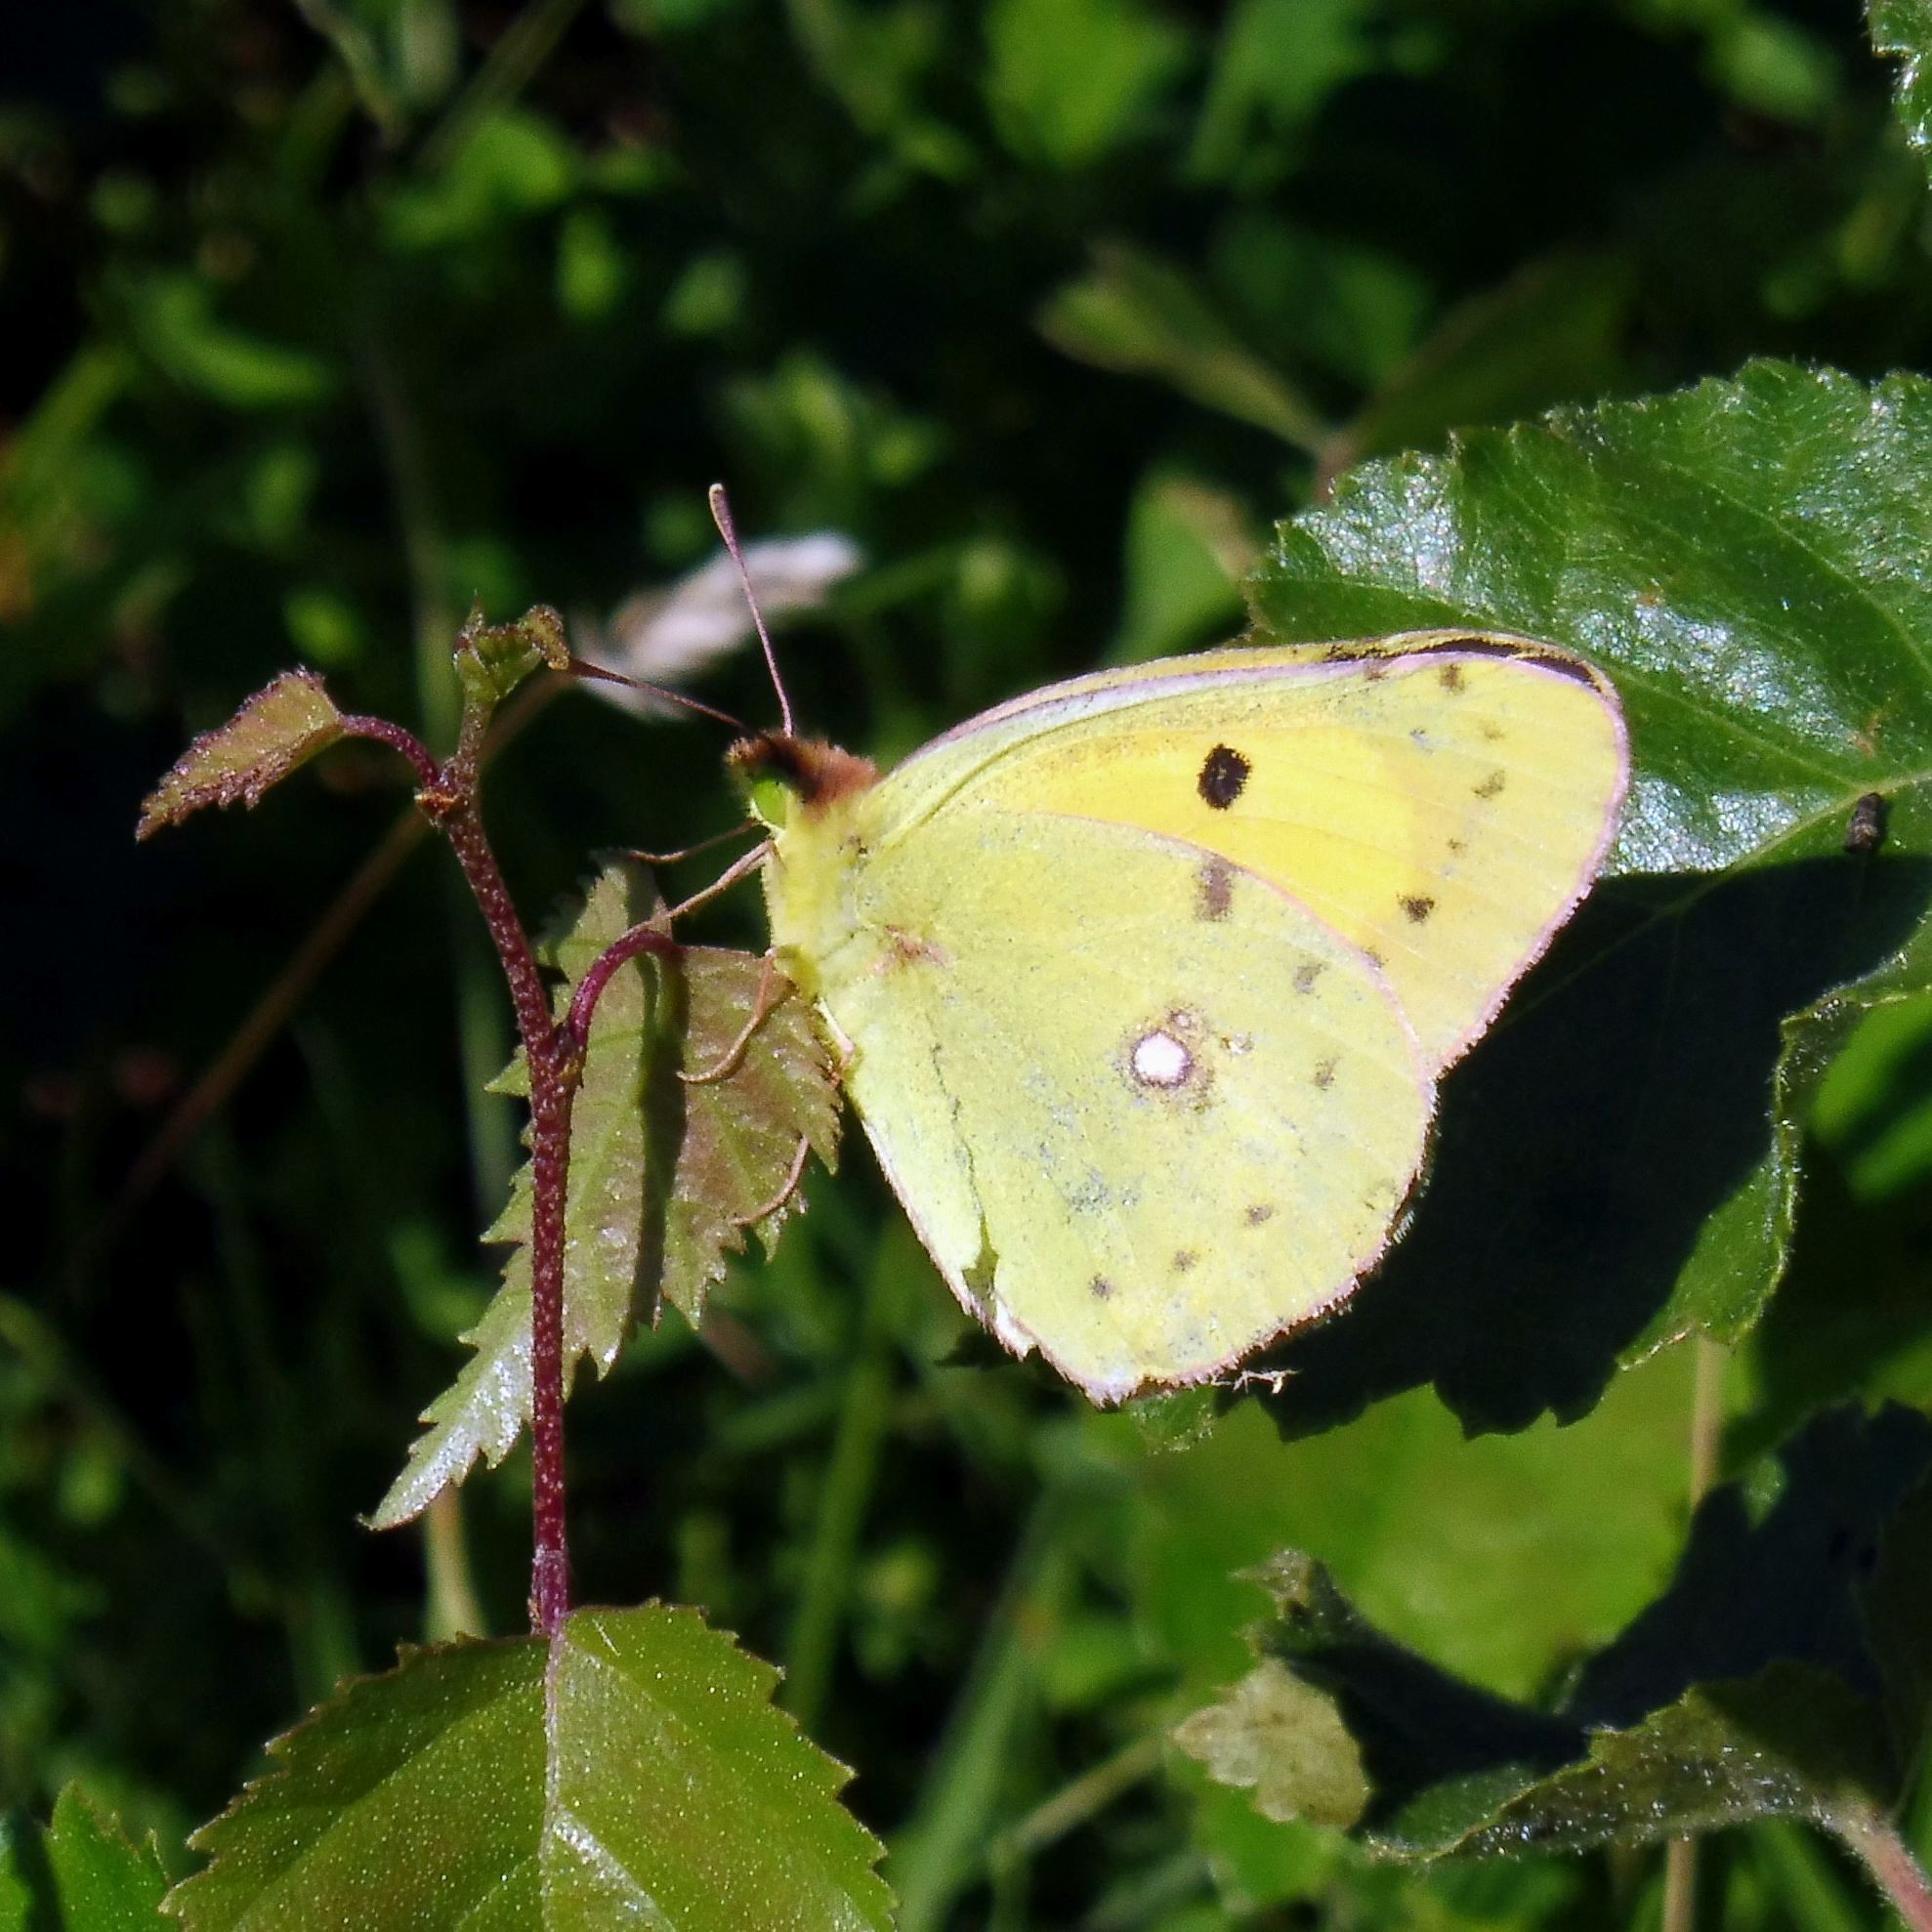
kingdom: Animalia
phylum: Arthropoda
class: Insecta
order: Lepidoptera
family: Pieridae
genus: Colias
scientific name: Colias croceus
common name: Clouded yellow
